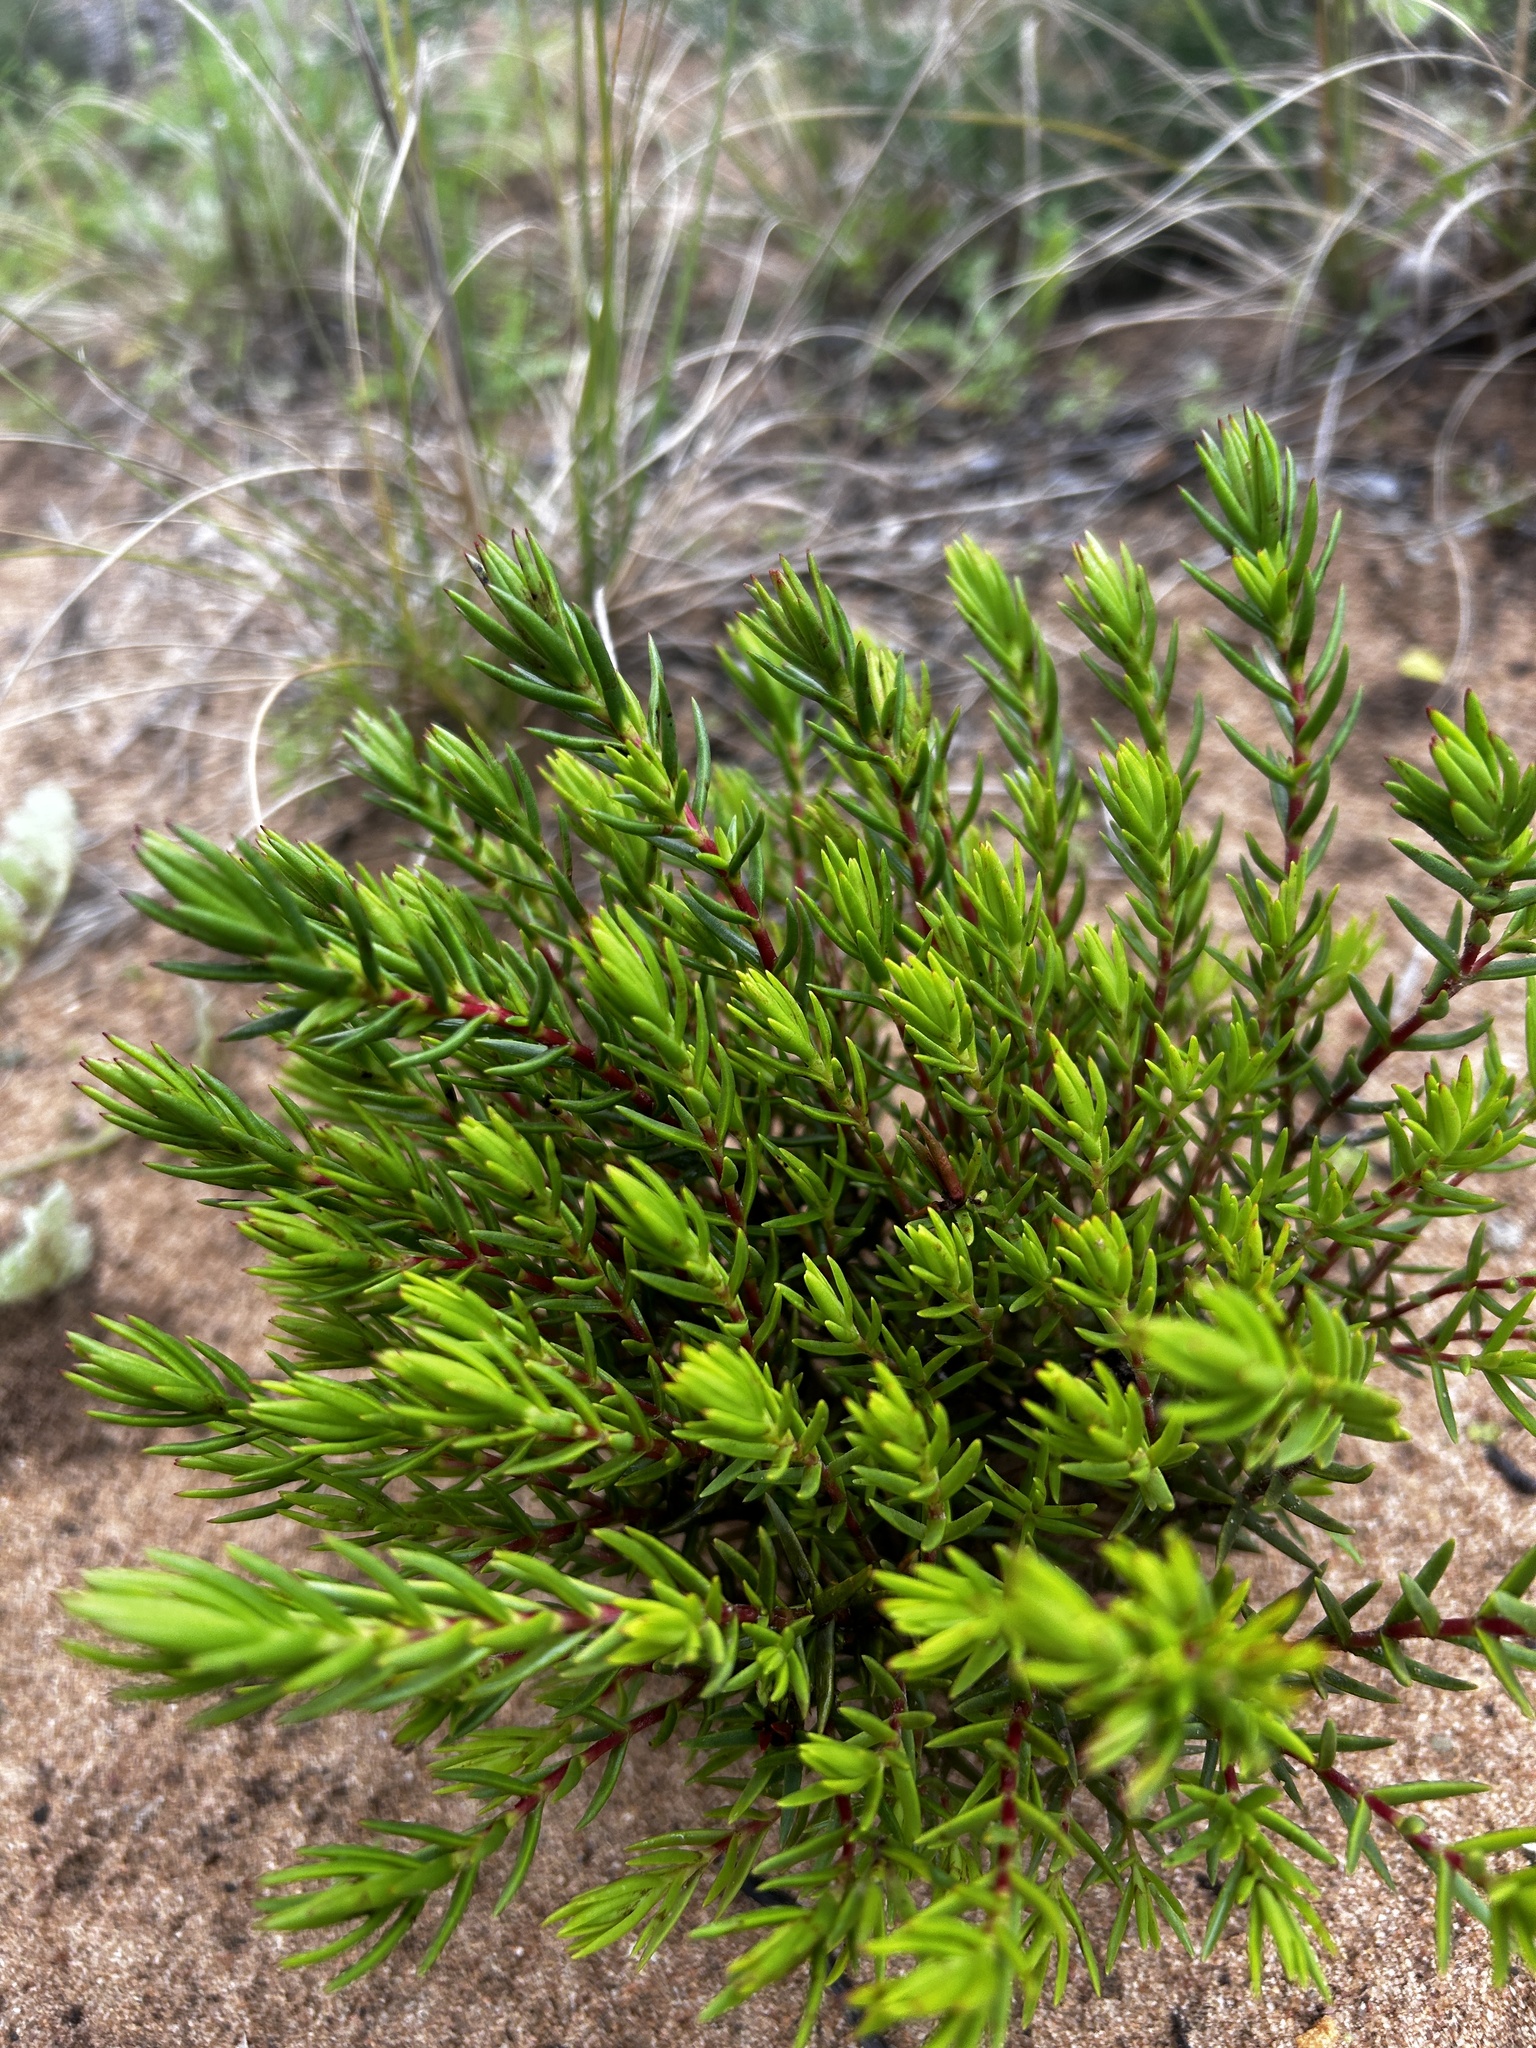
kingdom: Plantae
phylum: Tracheophyta
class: Magnoliopsida
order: Saxifragales
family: Crassulaceae
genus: Crassula
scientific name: Crassula subulata
